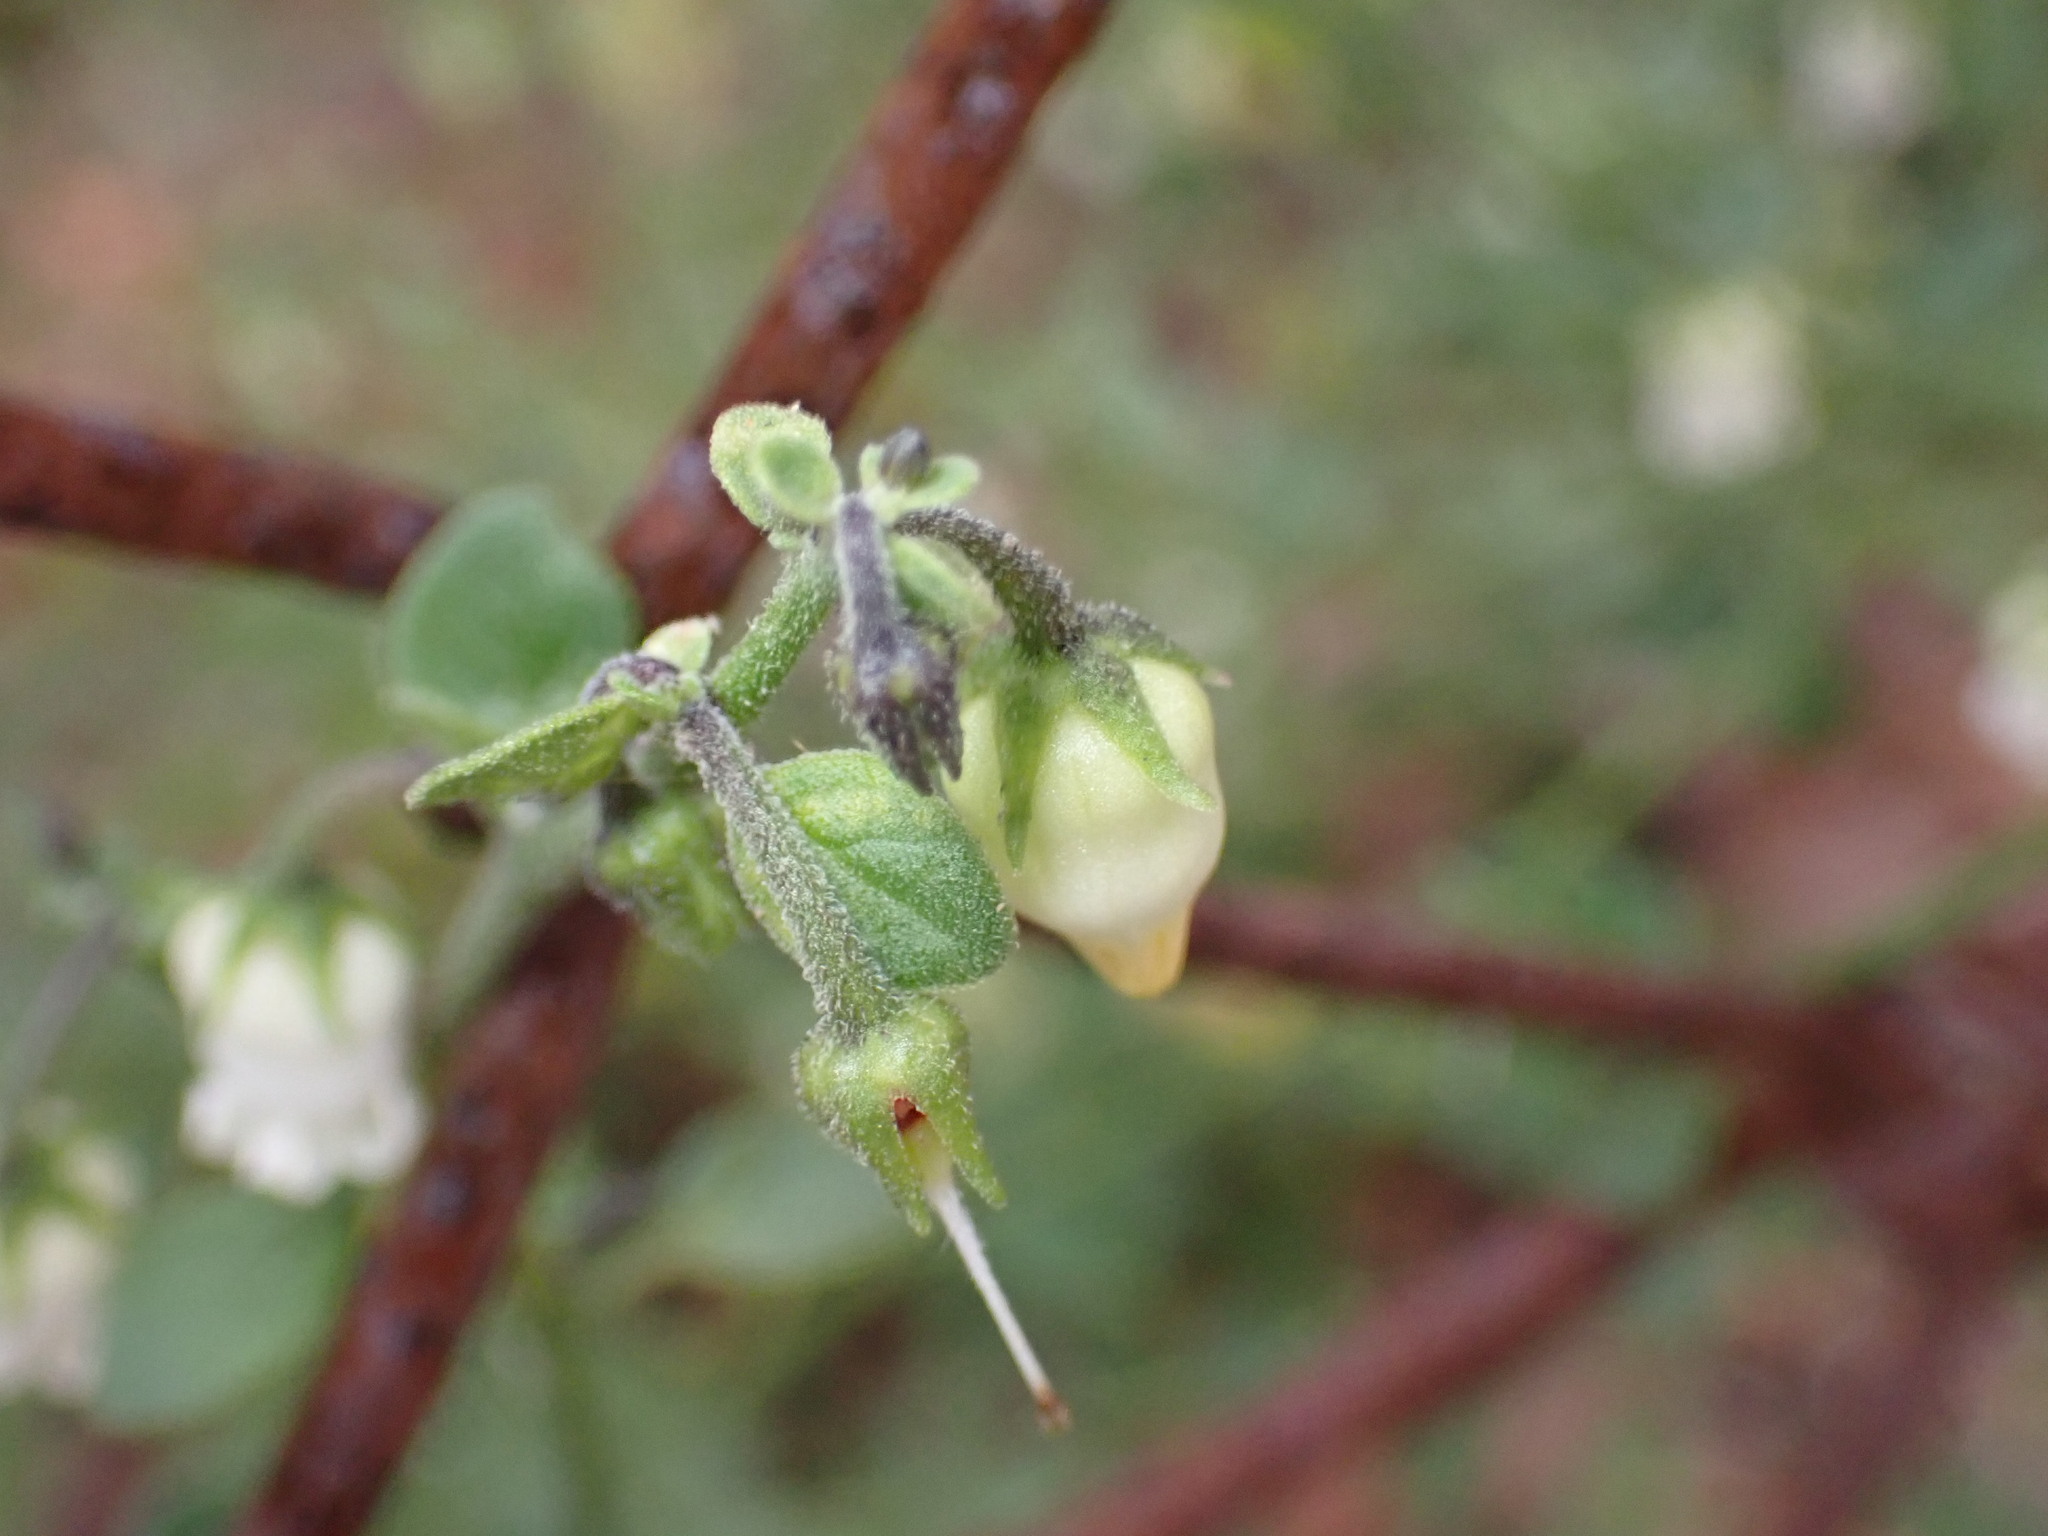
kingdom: Plantae
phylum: Tracheophyta
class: Magnoliopsida
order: Solanales
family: Solanaceae
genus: Salpichroa
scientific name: Salpichroa origanifolia
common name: Lily-of-the-valley-vine
